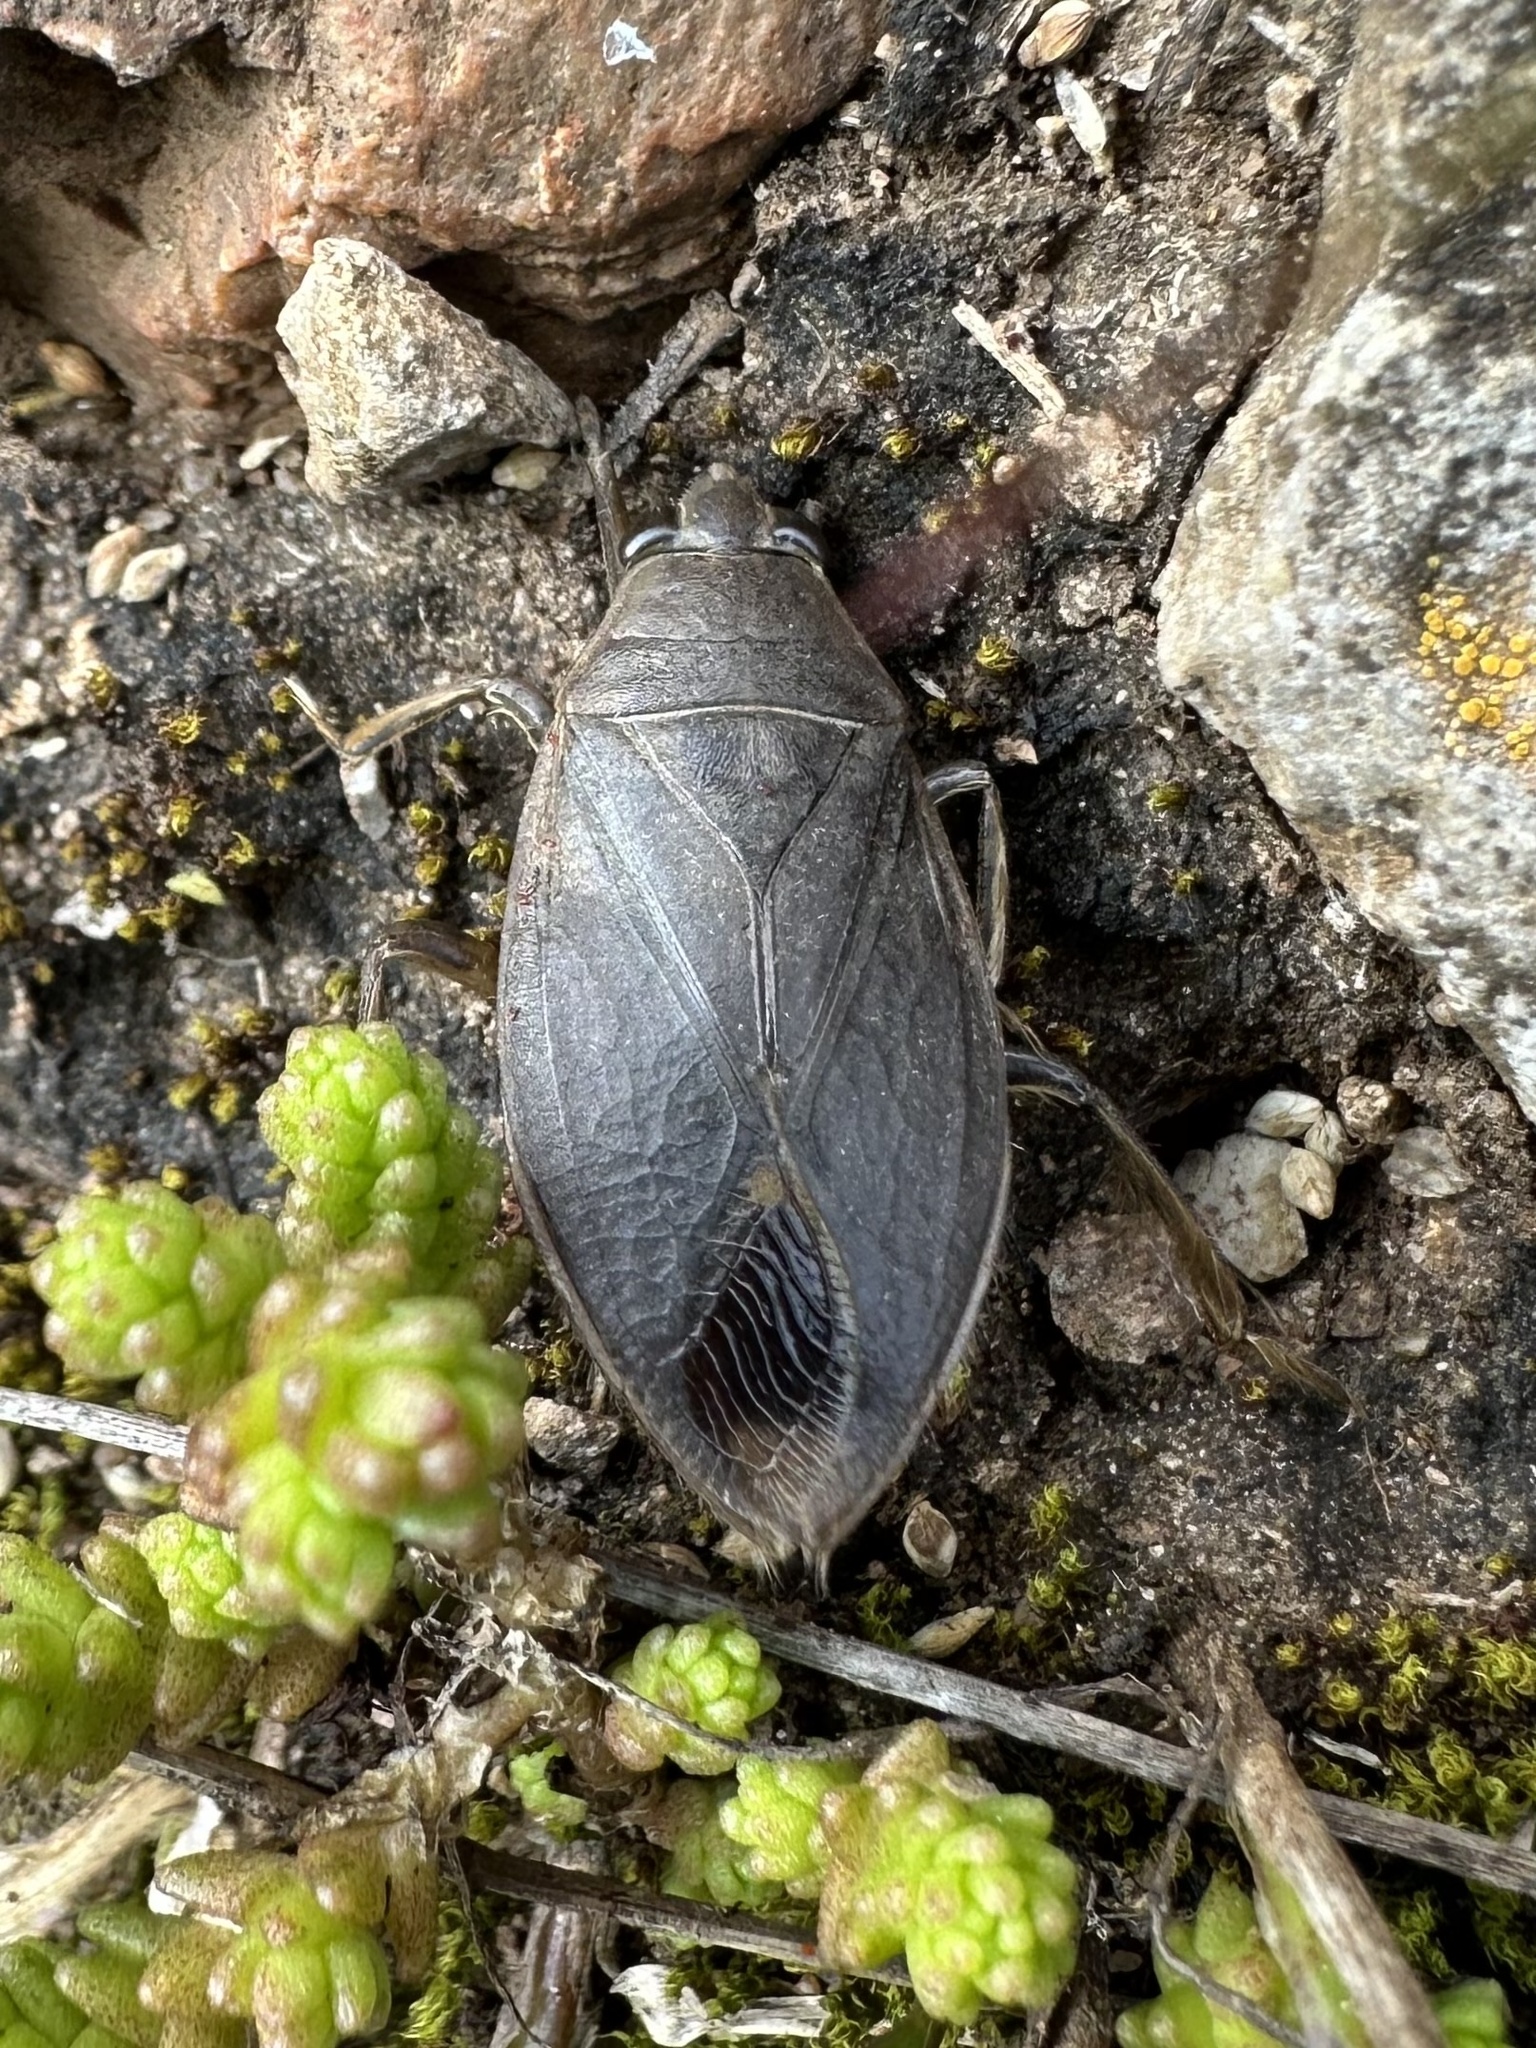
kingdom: Animalia
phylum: Arthropoda
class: Insecta
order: Hemiptera
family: Belostomatidae
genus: Belostoma
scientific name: Belostoma flumineum
